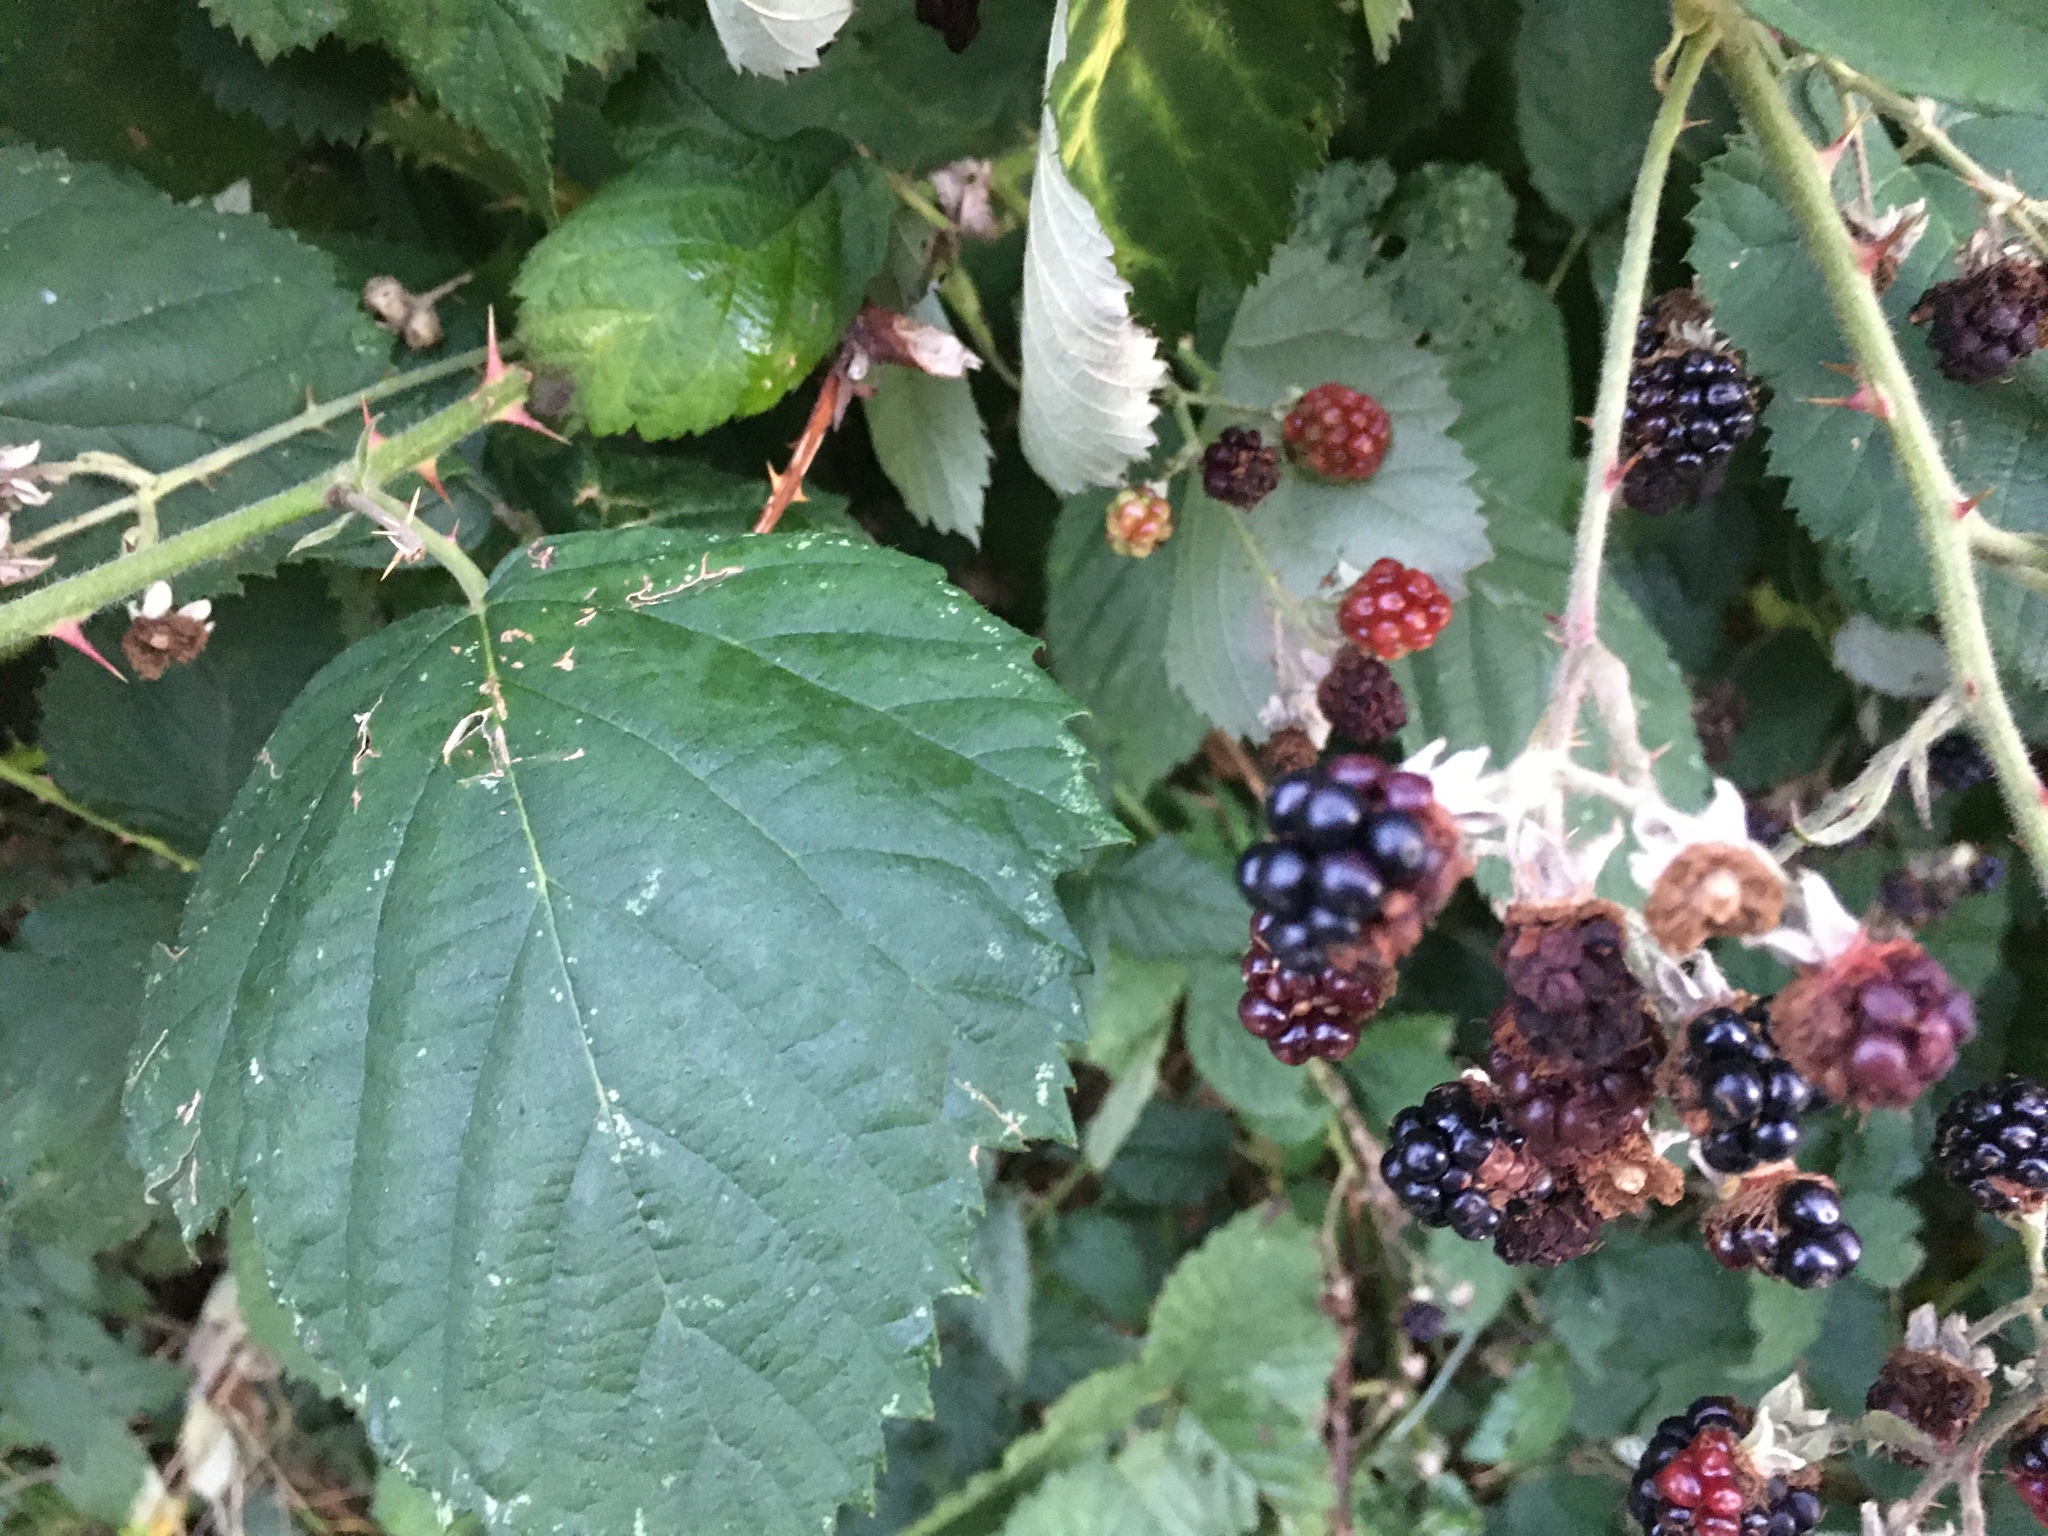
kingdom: Plantae
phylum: Tracheophyta
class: Magnoliopsida
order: Rosales
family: Rosaceae
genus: Rubus
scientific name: Rubus bifrons
